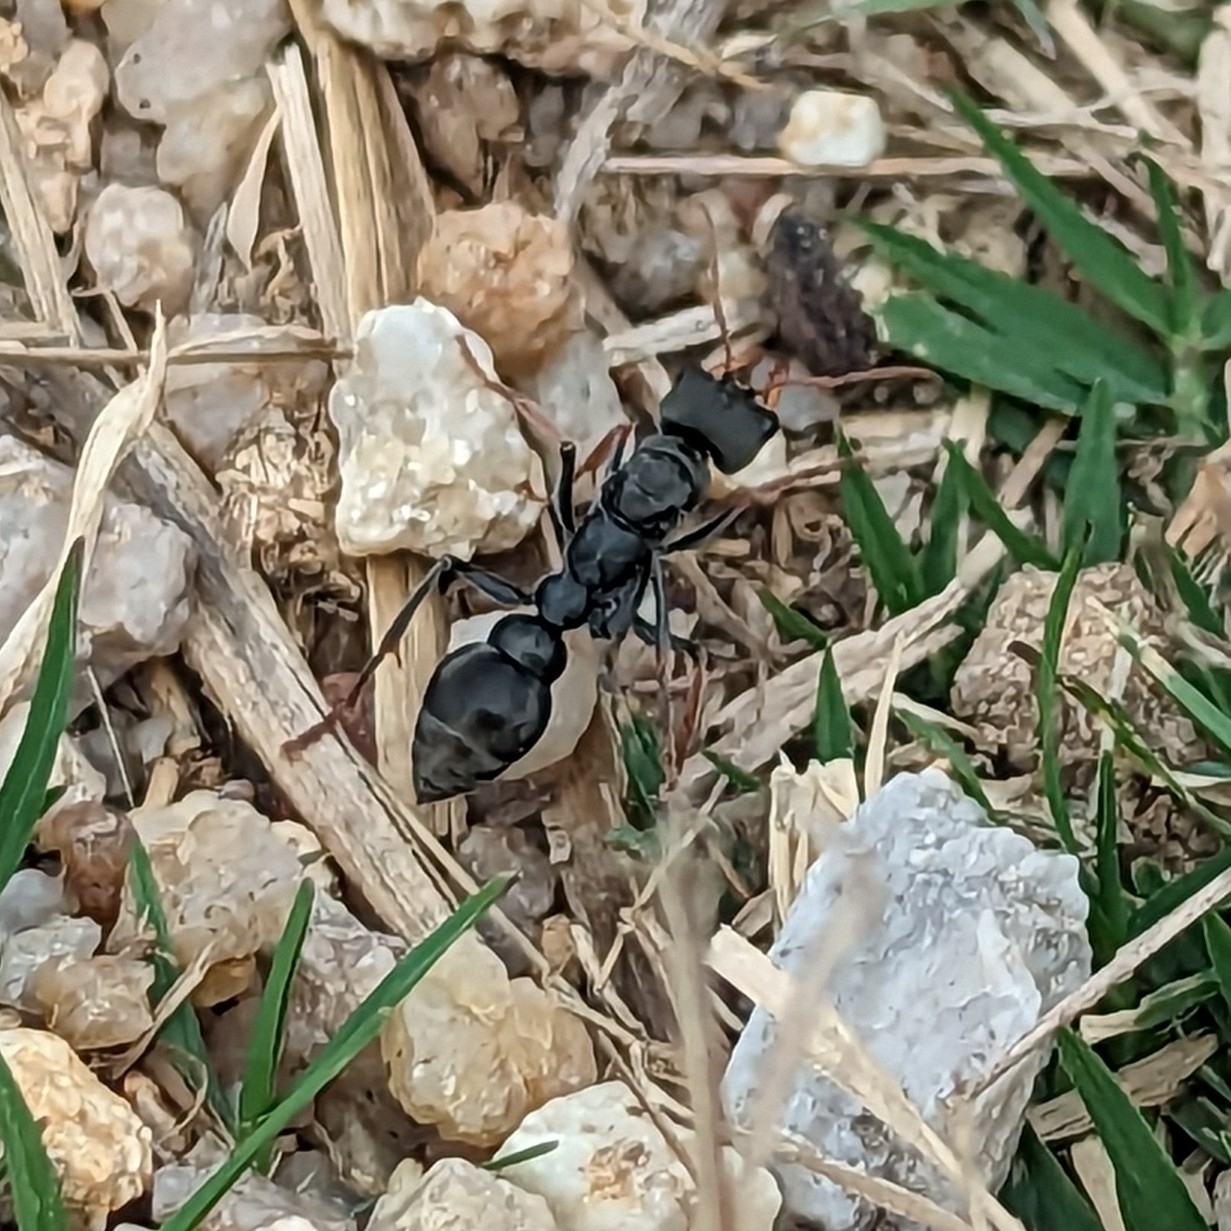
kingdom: Animalia
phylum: Arthropoda
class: Insecta
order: Hymenoptera
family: Formicidae
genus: Myrmecia
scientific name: Myrmecia pilosula
